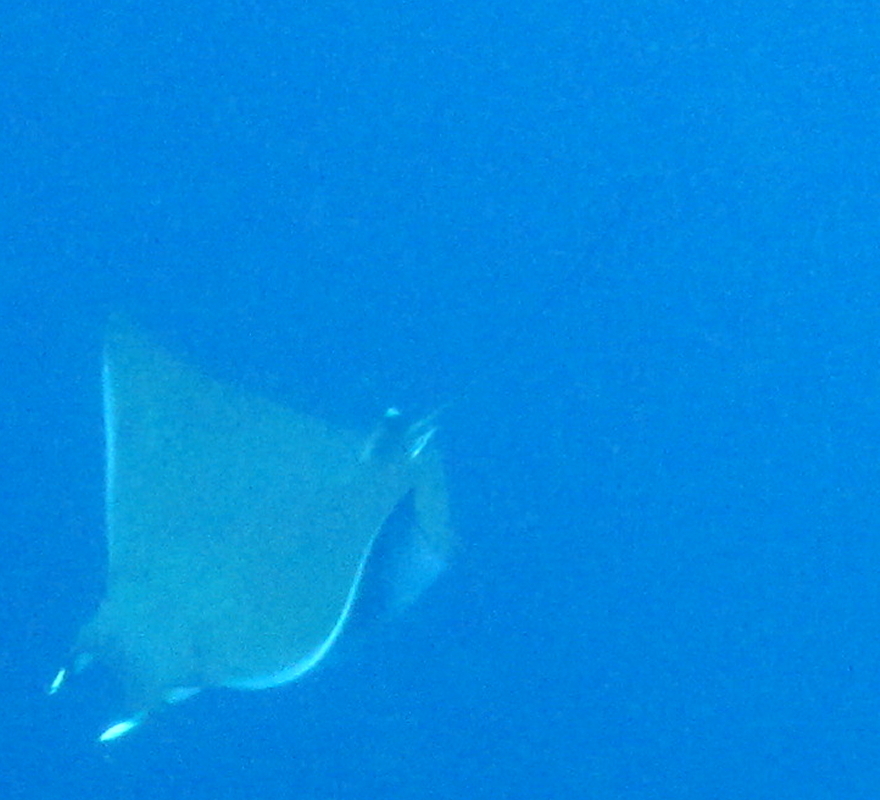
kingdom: Animalia
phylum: Chordata
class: Elasmobranchii
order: Myliobatiformes
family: Myliobatidae
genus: Mobula
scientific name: Mobula kuhlii
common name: Shortfin devil ray
